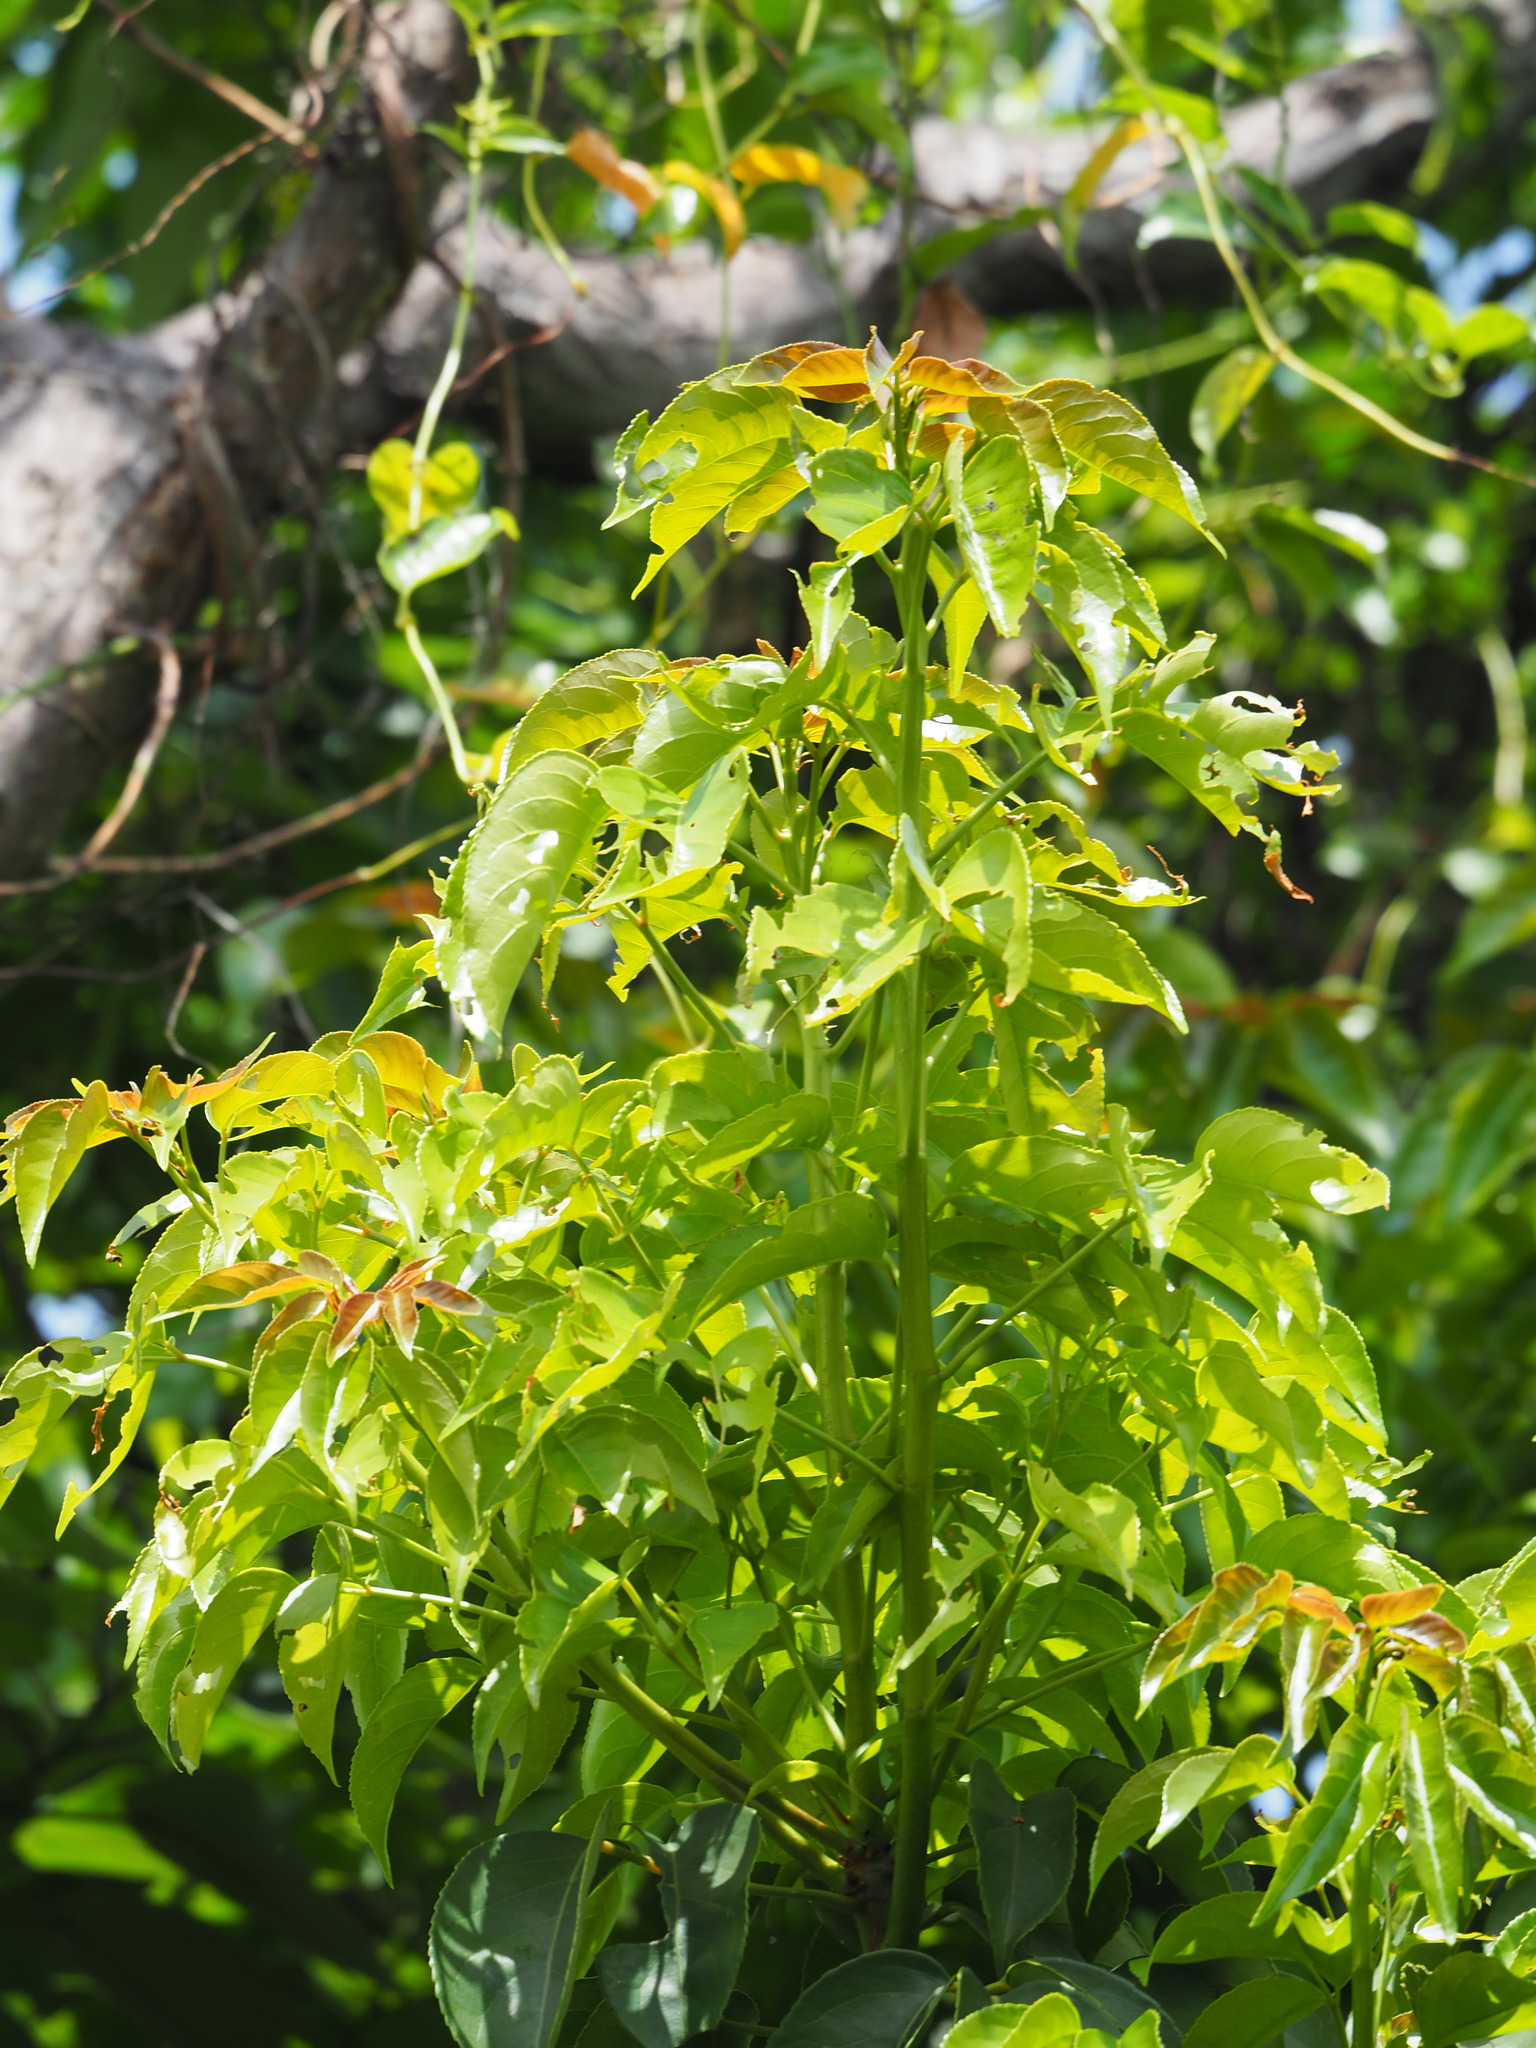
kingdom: Plantae
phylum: Tracheophyta
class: Magnoliopsida
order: Malpighiales
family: Phyllanthaceae
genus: Bischofia
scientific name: Bischofia javanica
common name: Javanese bishopwood
